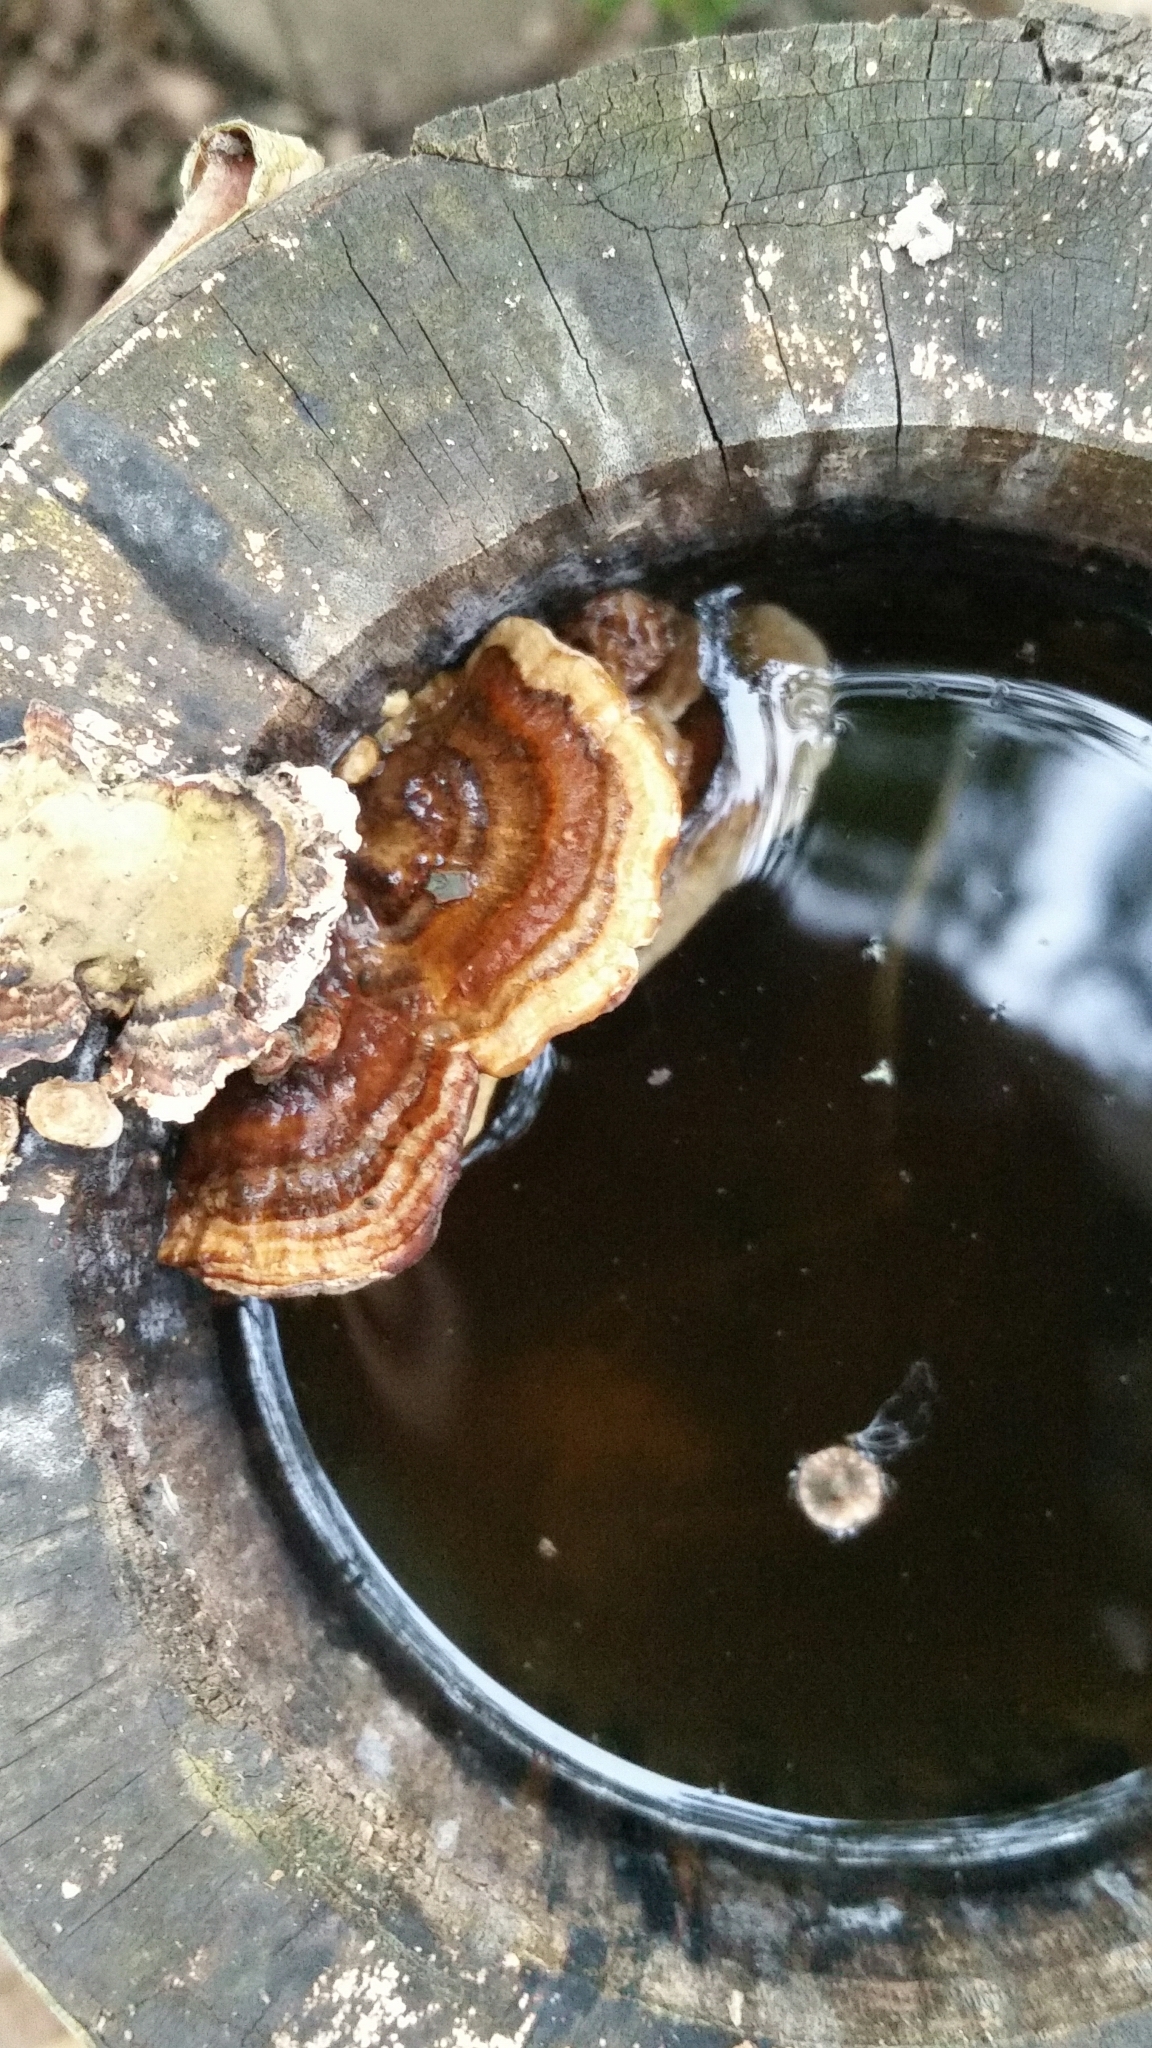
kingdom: Fungi
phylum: Basidiomycota
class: Agaricomycetes
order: Polyporales
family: Polyporaceae
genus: Trametes
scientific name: Trametes versicolor
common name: Turkeytail
